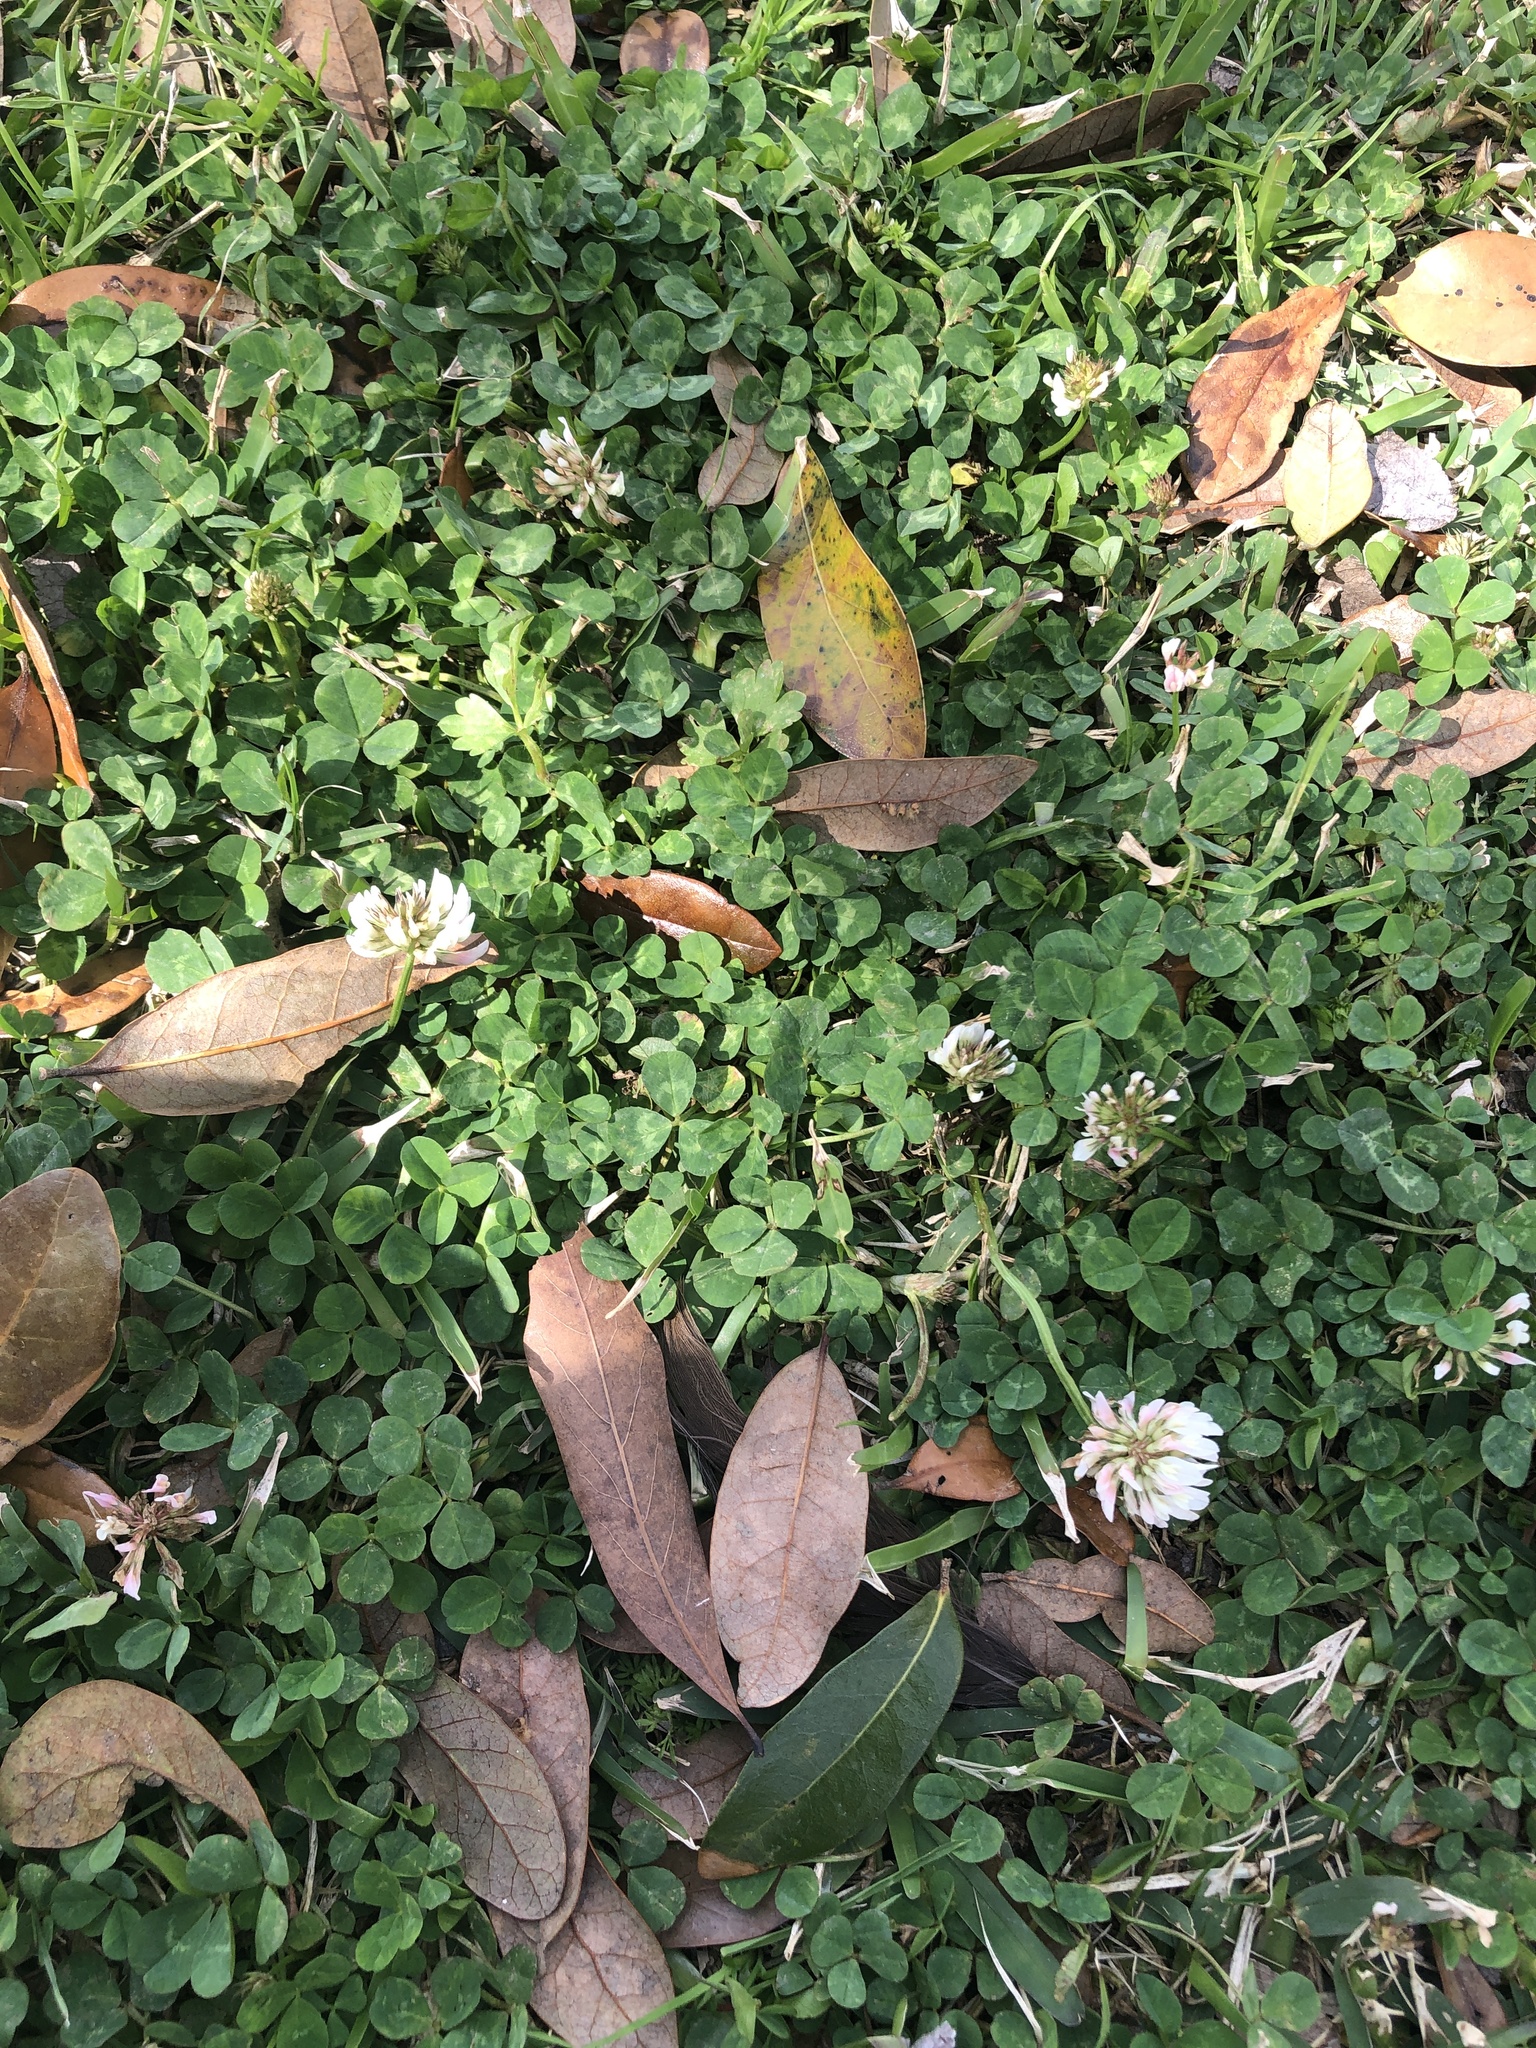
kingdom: Plantae
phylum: Tracheophyta
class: Magnoliopsida
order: Fabales
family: Fabaceae
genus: Trifolium
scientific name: Trifolium repens
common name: White clover
